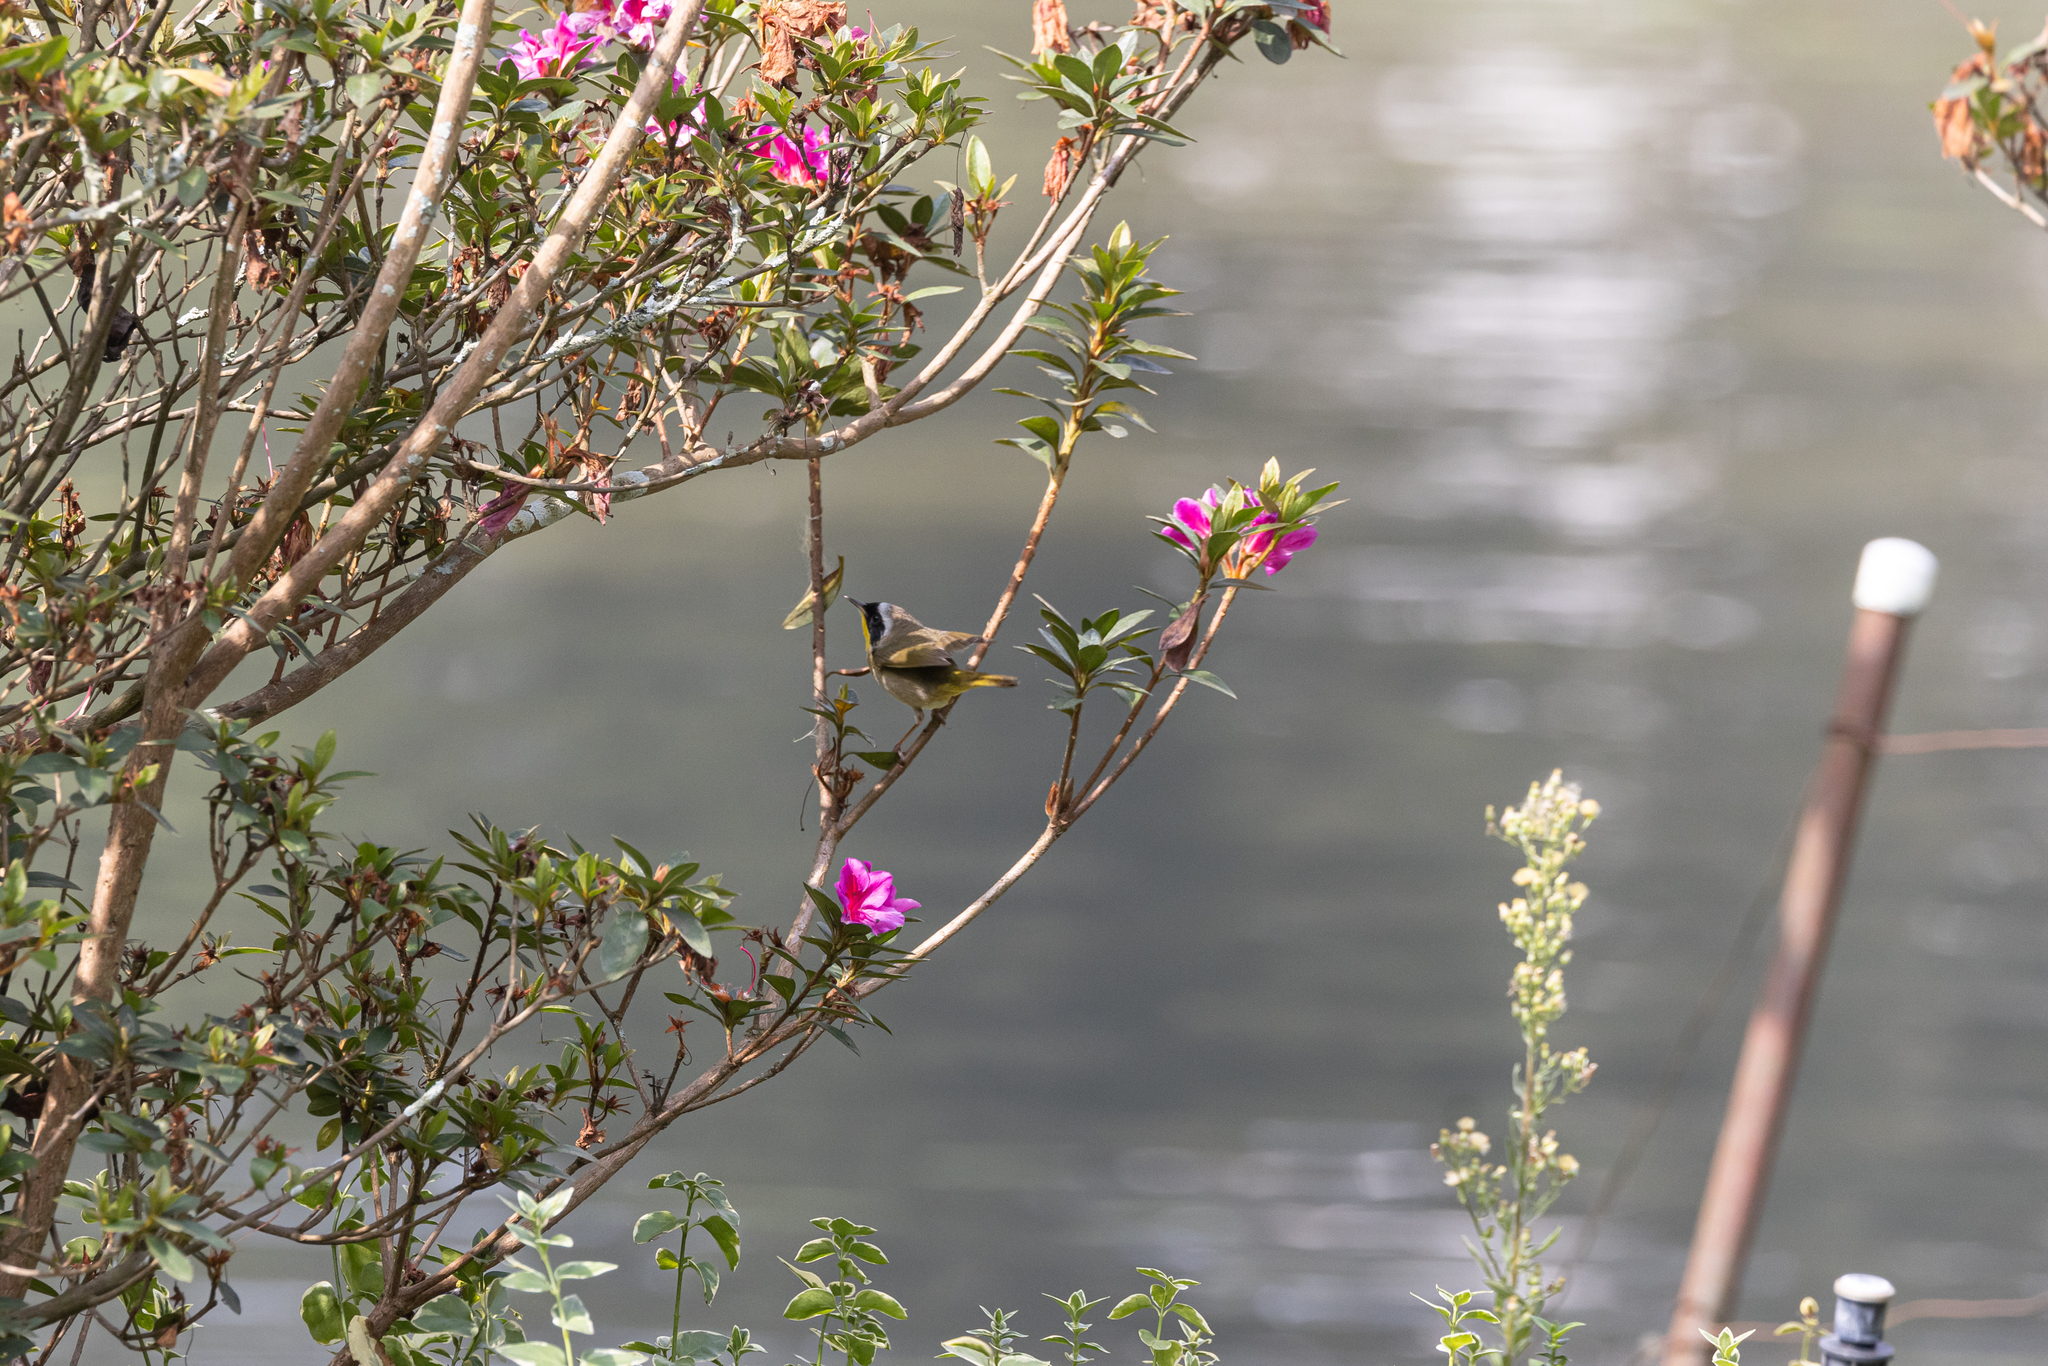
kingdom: Animalia
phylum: Chordata
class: Aves
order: Passeriformes
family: Parulidae
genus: Geothlypis
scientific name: Geothlypis trichas
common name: Common yellowthroat
